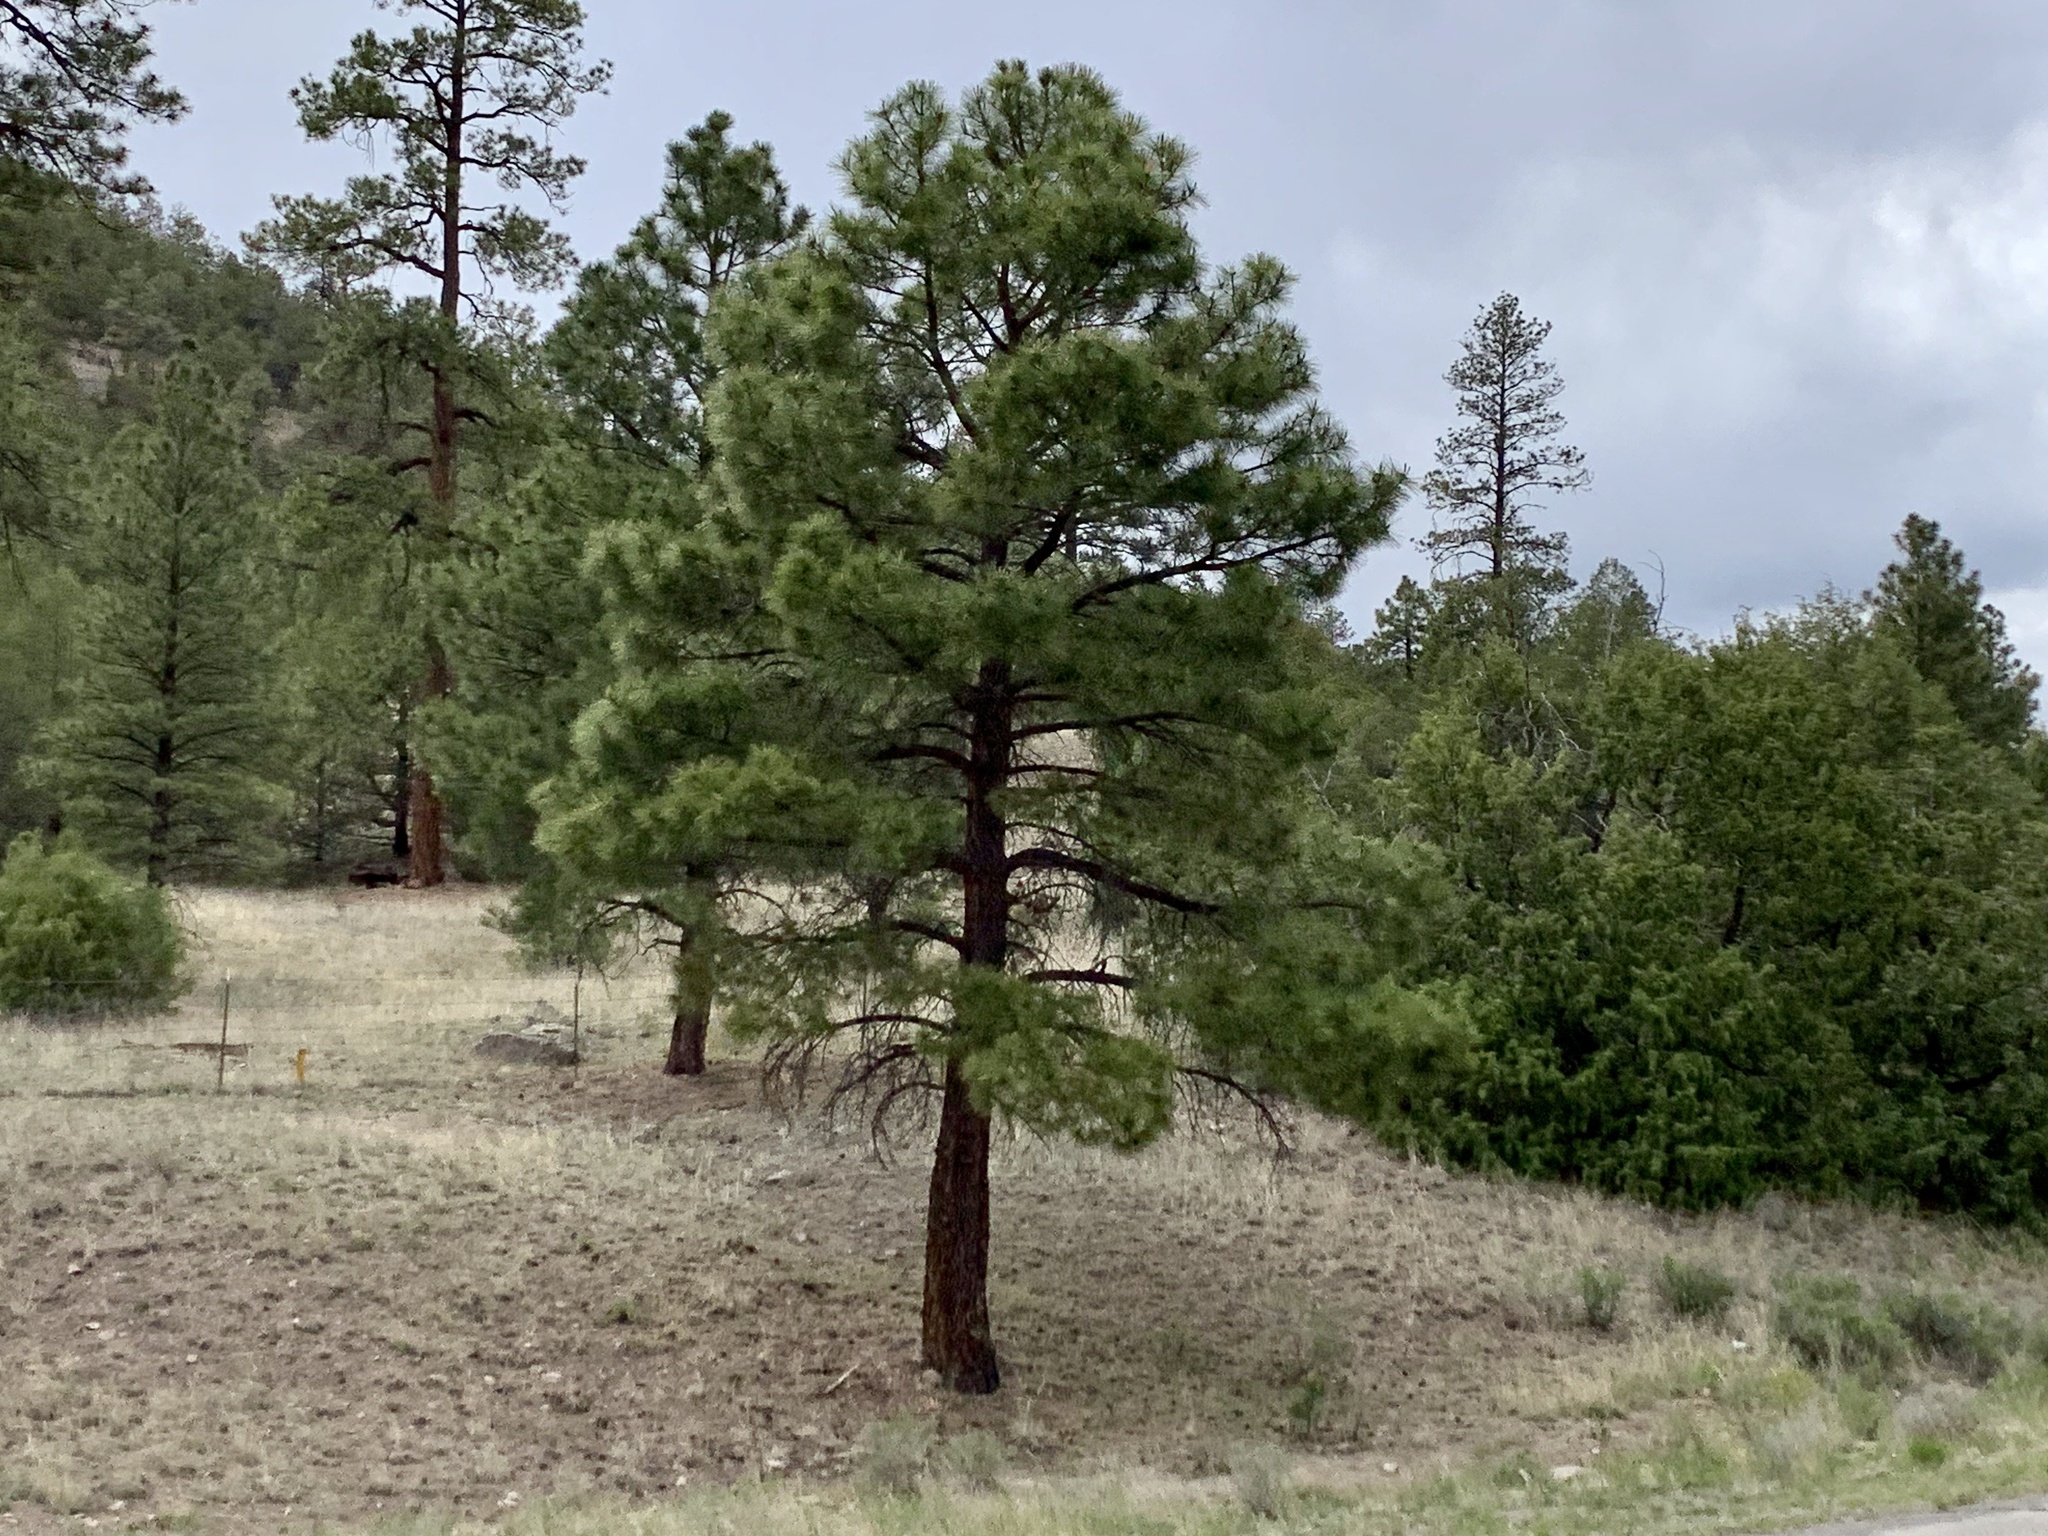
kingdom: Plantae
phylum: Tracheophyta
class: Pinopsida
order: Pinales
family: Pinaceae
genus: Pinus
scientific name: Pinus ponderosa
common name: Western yellow-pine
